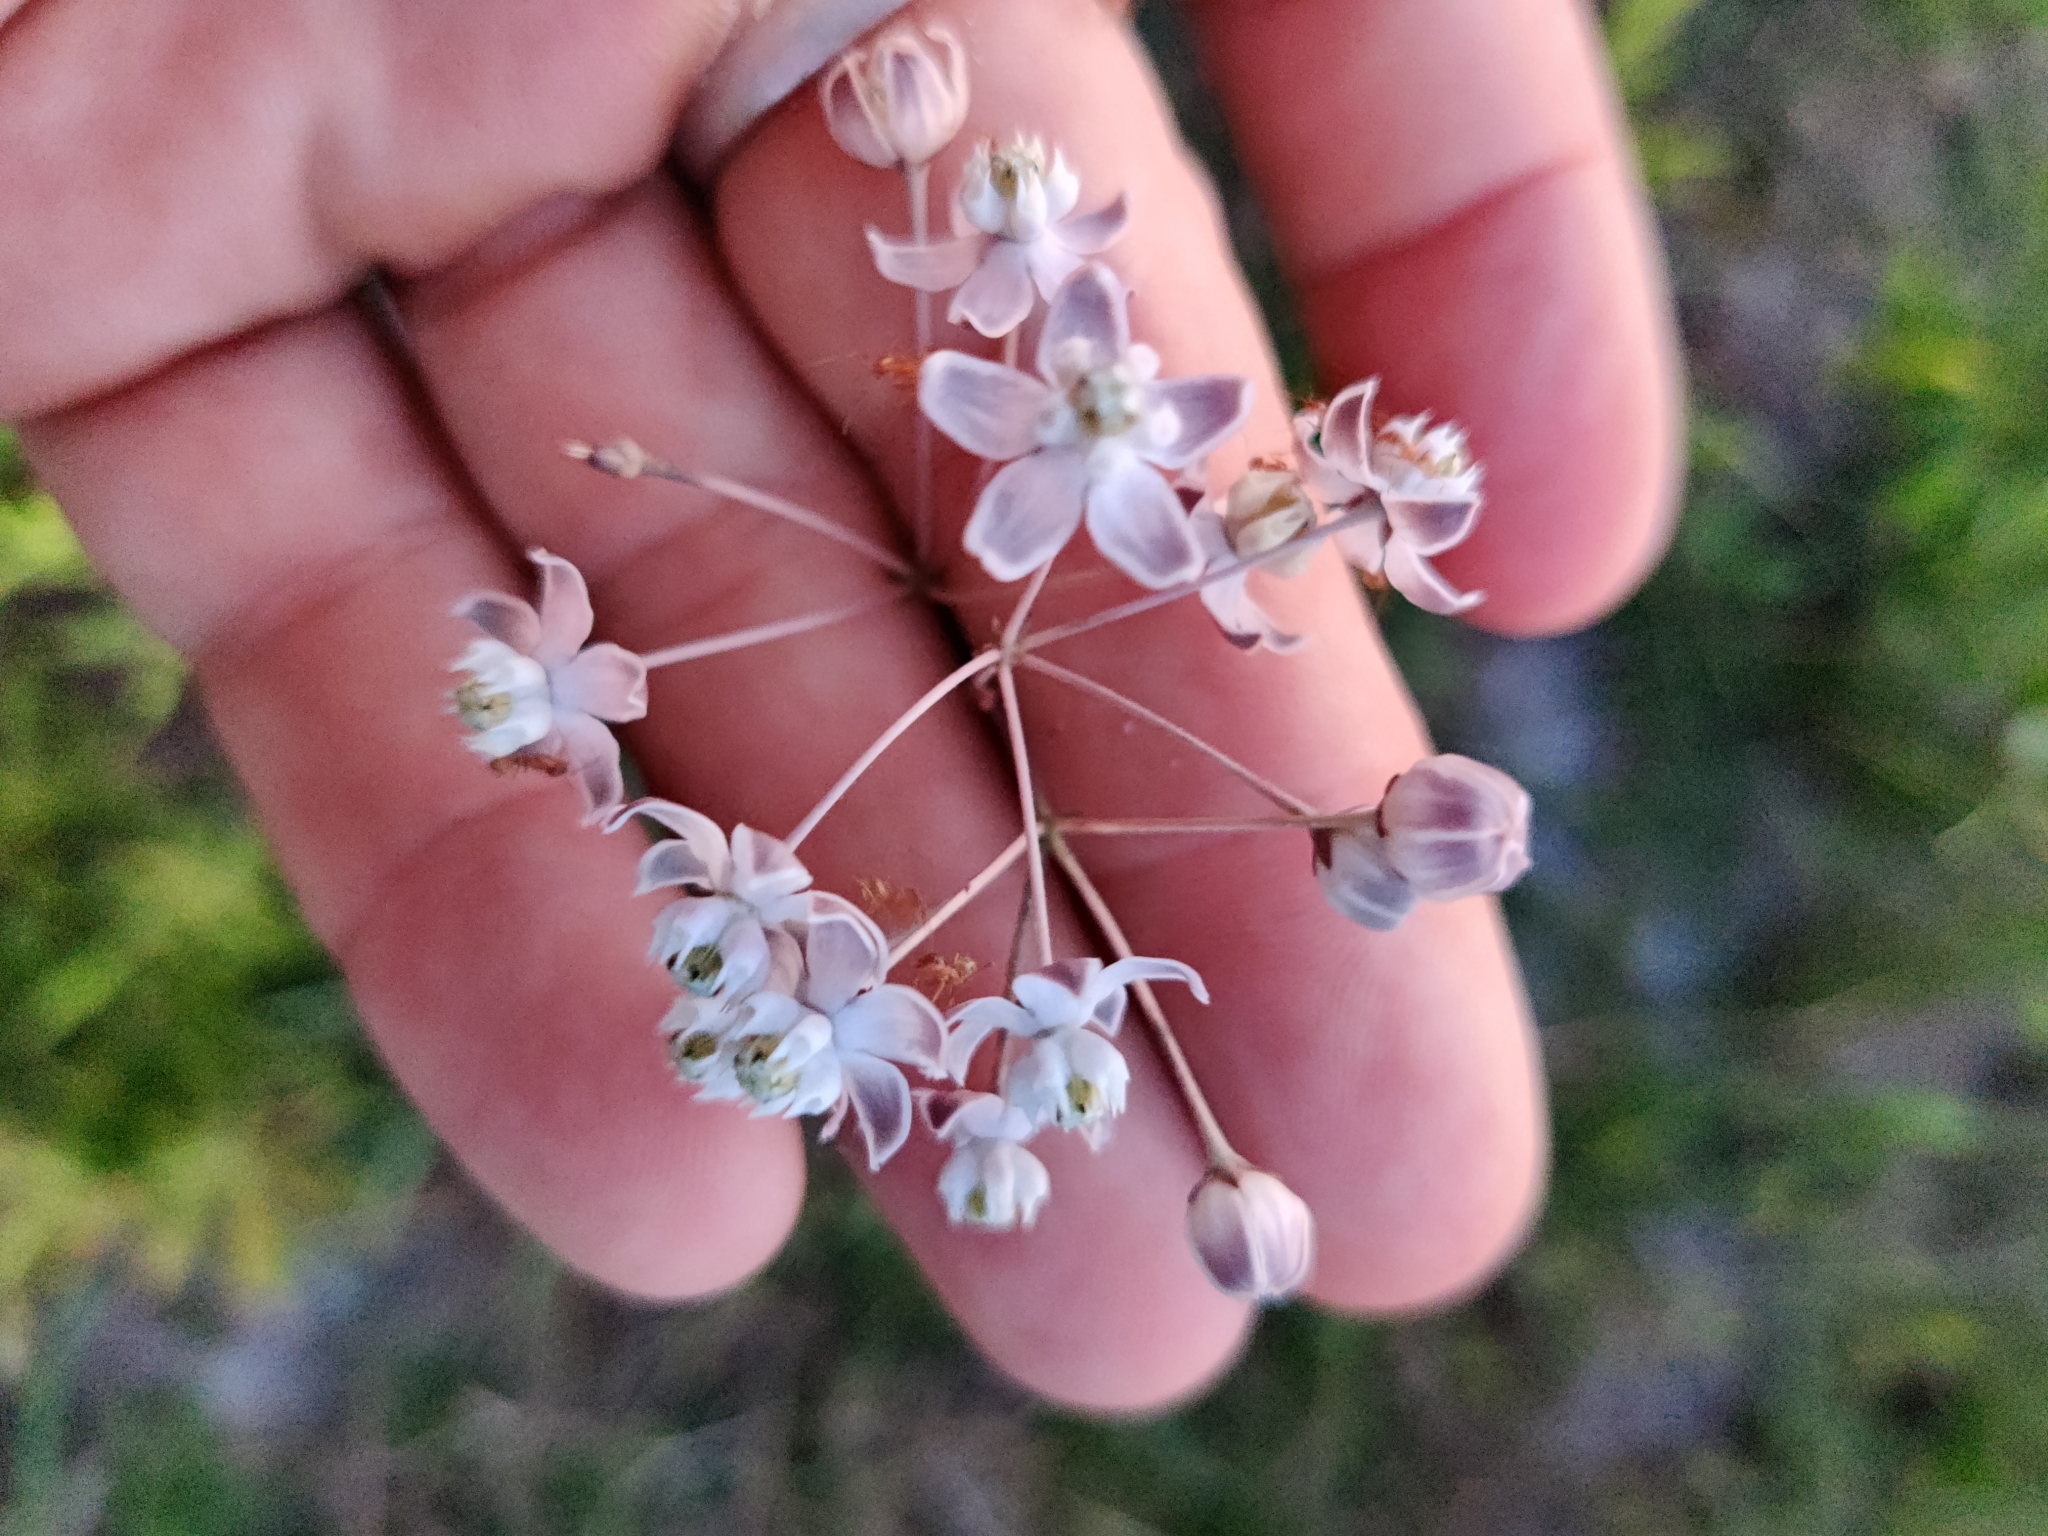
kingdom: Plantae
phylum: Tracheophyta
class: Magnoliopsida
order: Gentianales
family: Apocynaceae
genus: Asclepias
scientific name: Asclepias cinerea
